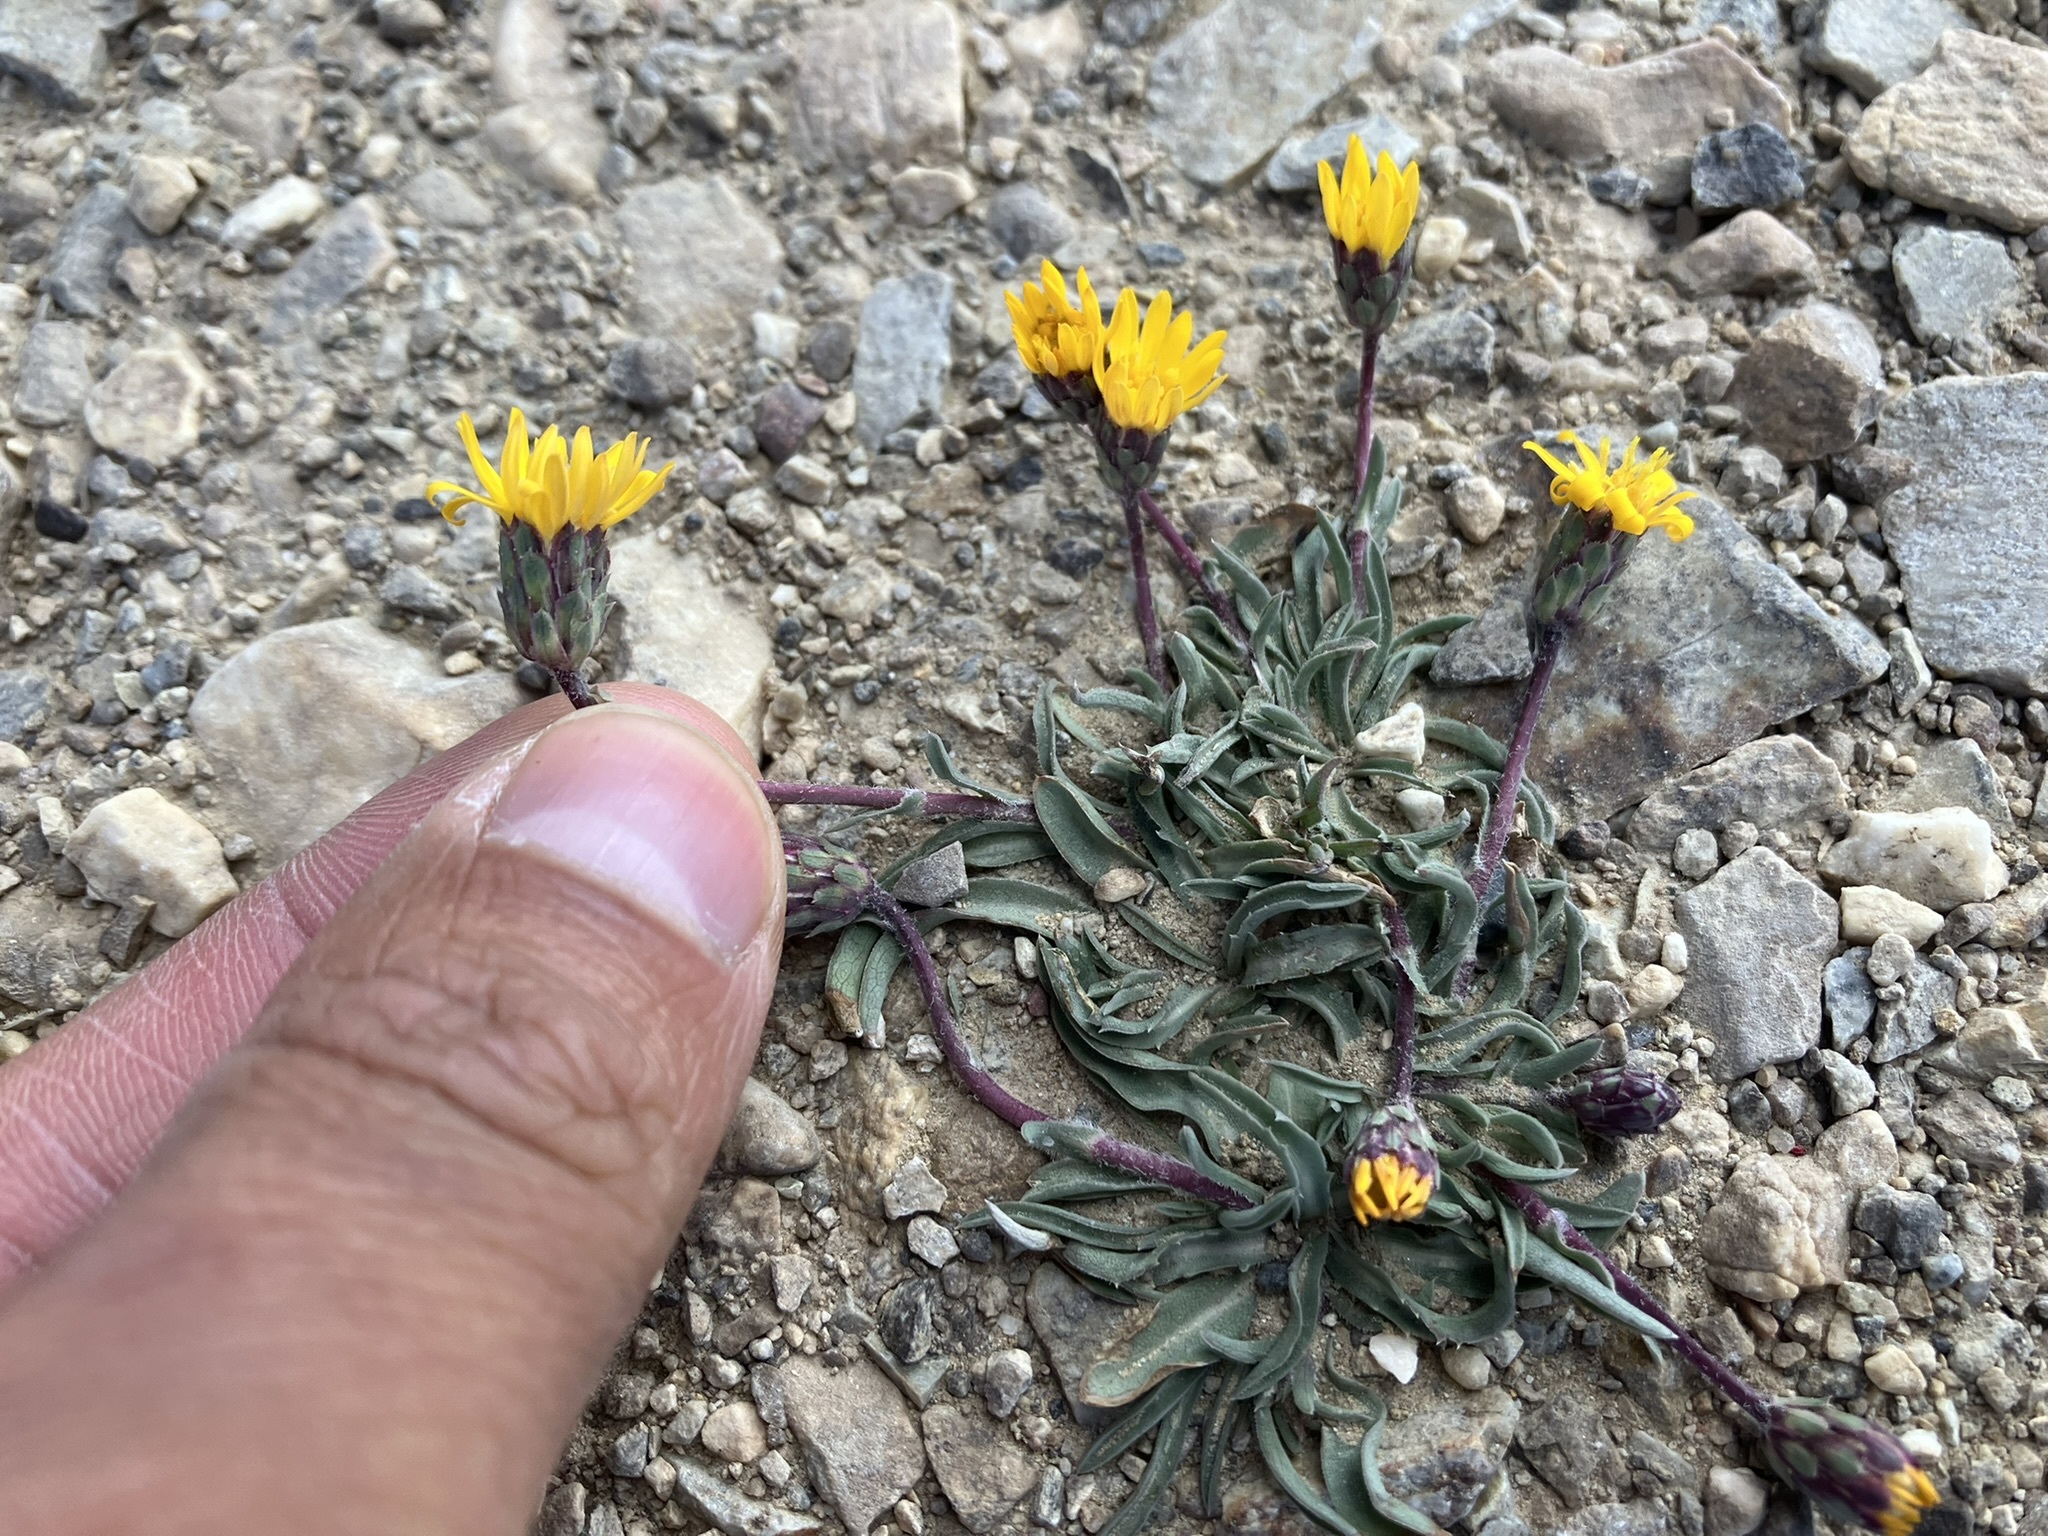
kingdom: Plantae
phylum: Tracheophyta
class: Magnoliopsida
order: Asterales
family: Asteraceae
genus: Pyrrocoma
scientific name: Pyrrocoma apargioides
